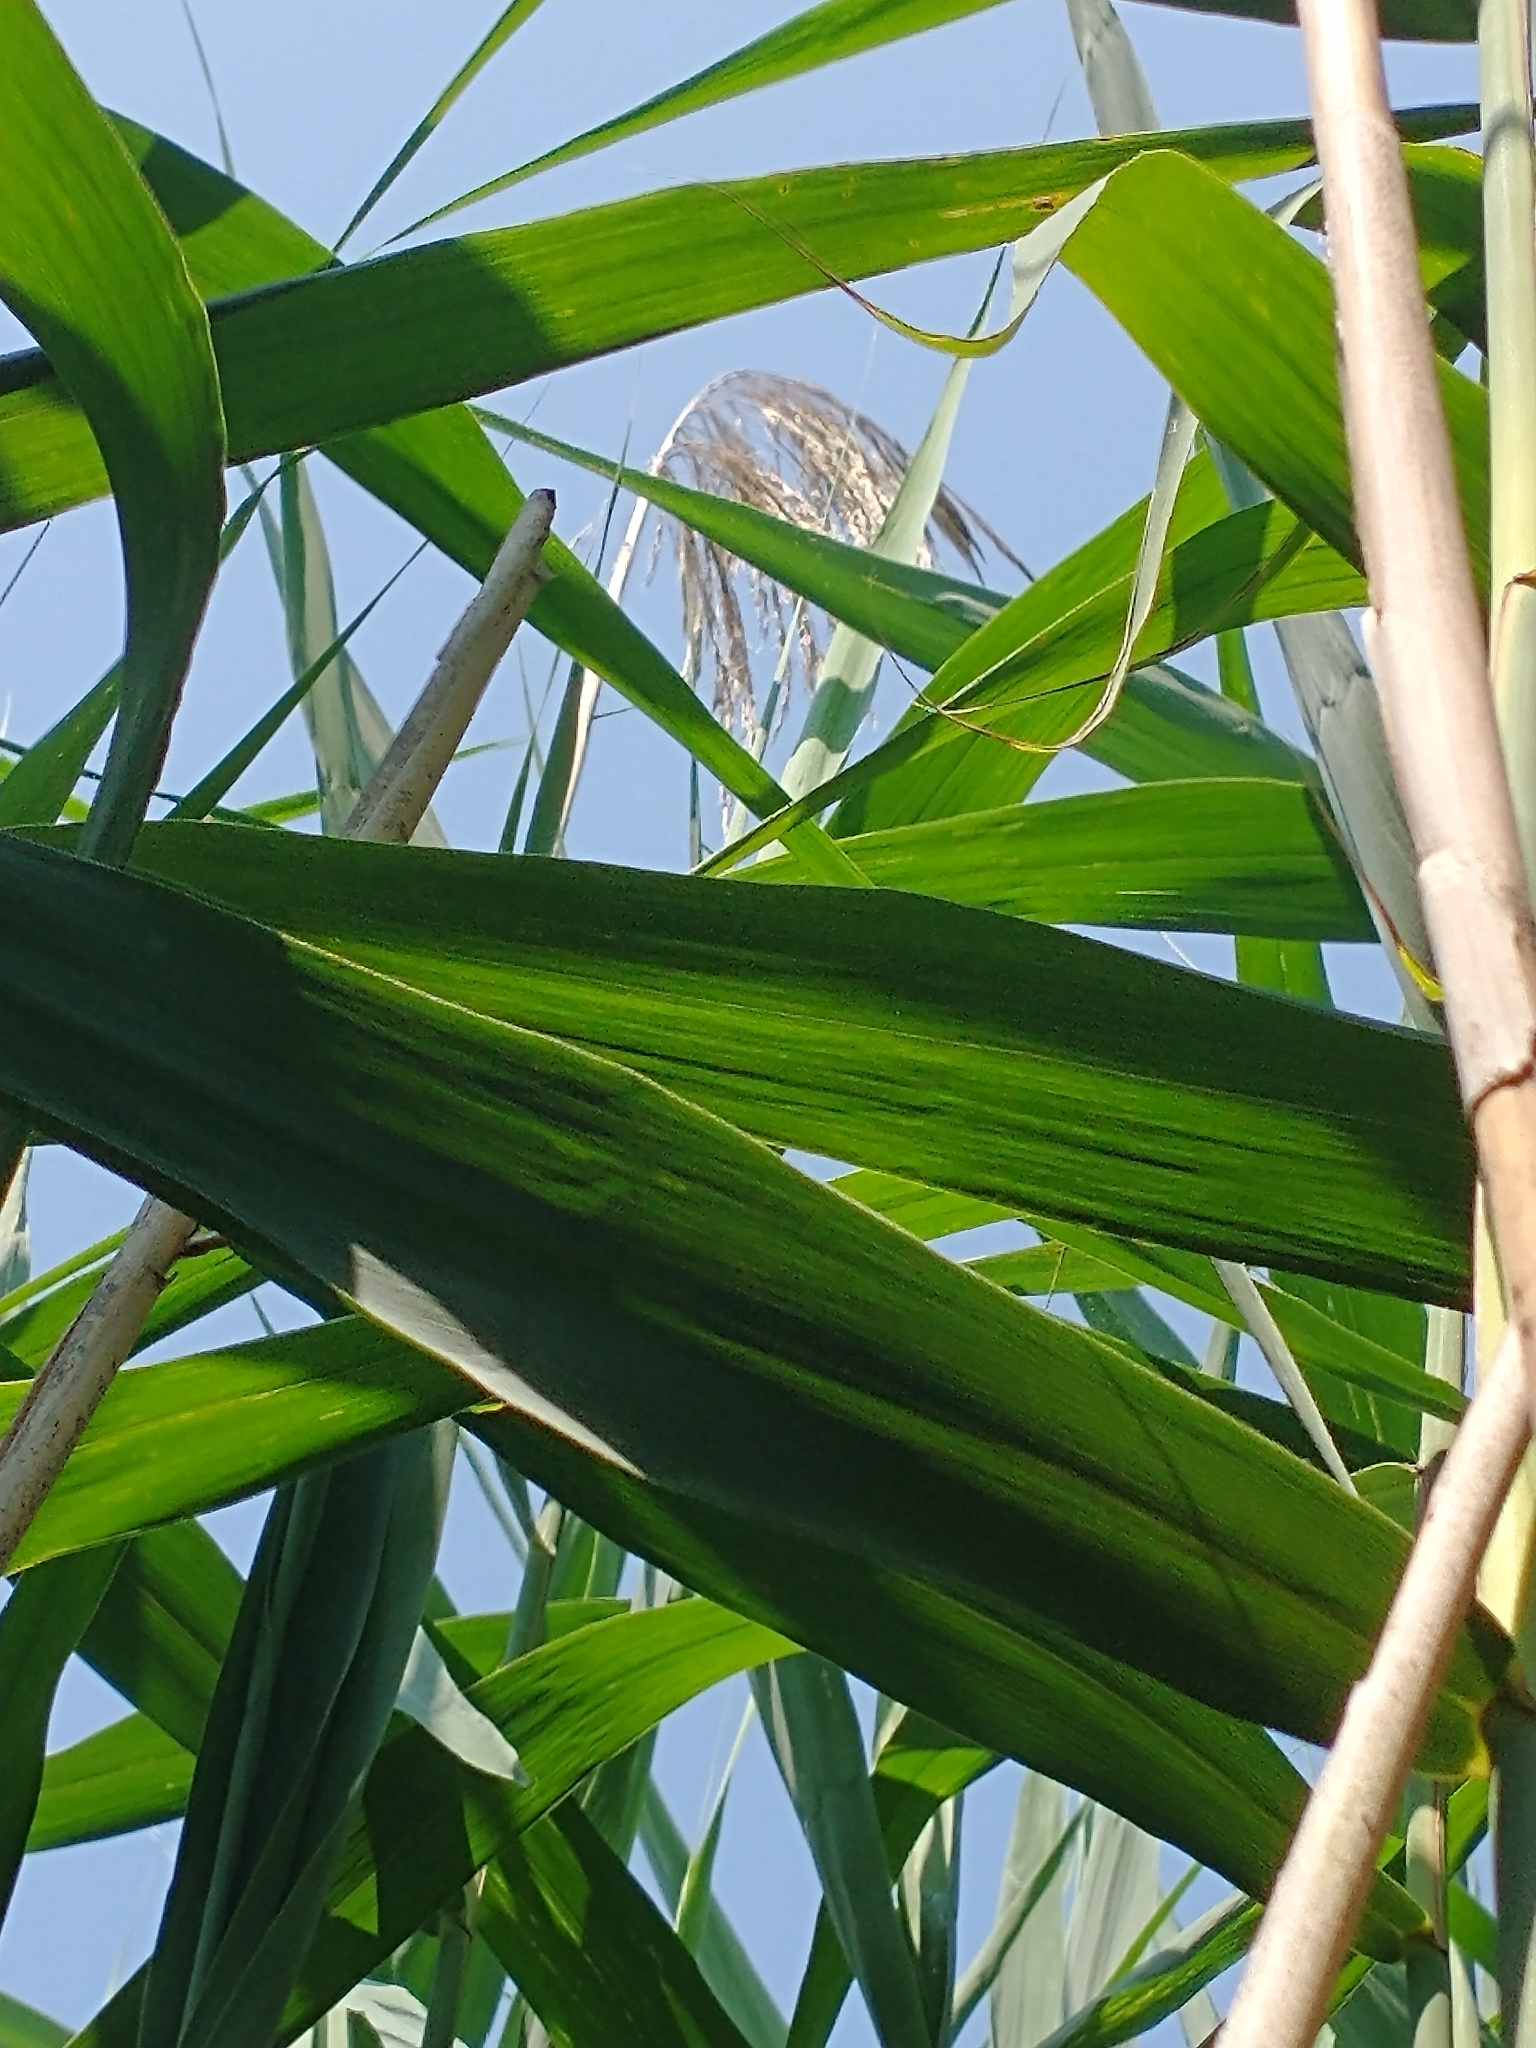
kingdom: Plantae
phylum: Tracheophyta
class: Liliopsida
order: Poales
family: Poaceae
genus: Phragmites
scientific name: Phragmites australis
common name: Common reed
